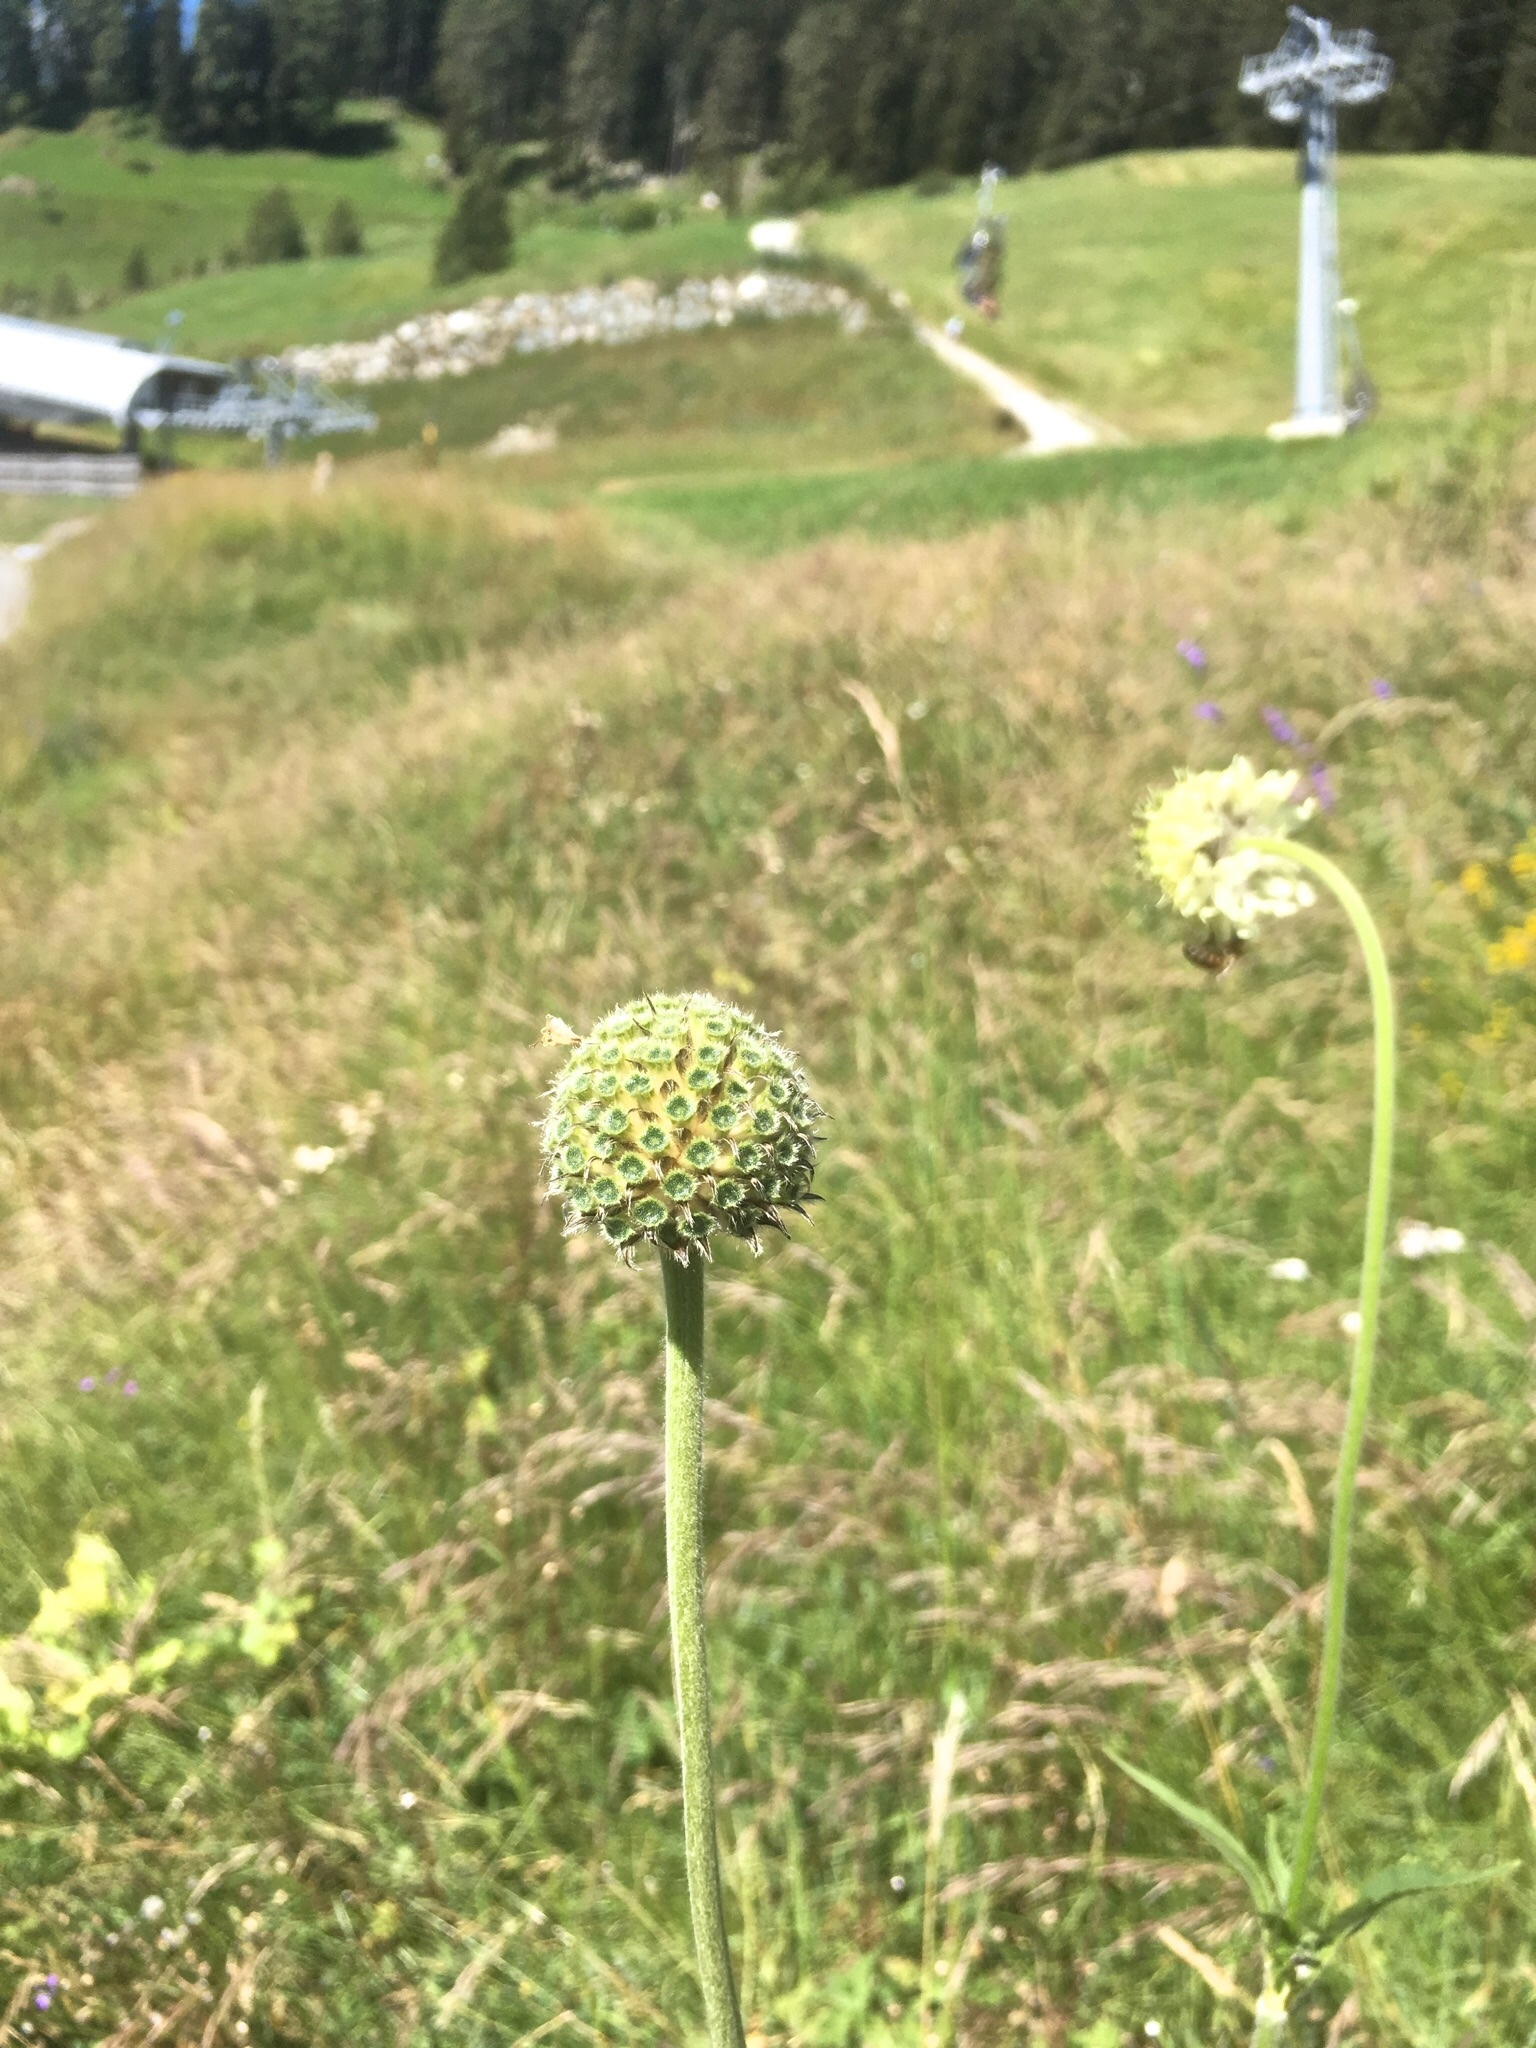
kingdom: Plantae
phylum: Tracheophyta
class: Magnoliopsida
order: Dipsacales
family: Caprifoliaceae
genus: Cephalaria
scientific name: Cephalaria alpina
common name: Alpine-scabious
